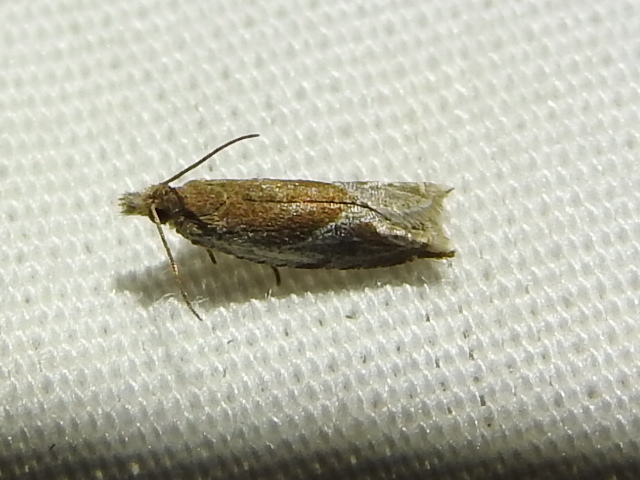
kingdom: Animalia
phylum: Arthropoda
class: Insecta
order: Lepidoptera
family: Tortricidae
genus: Ancylis
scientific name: Ancylis comptana
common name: Little roller
